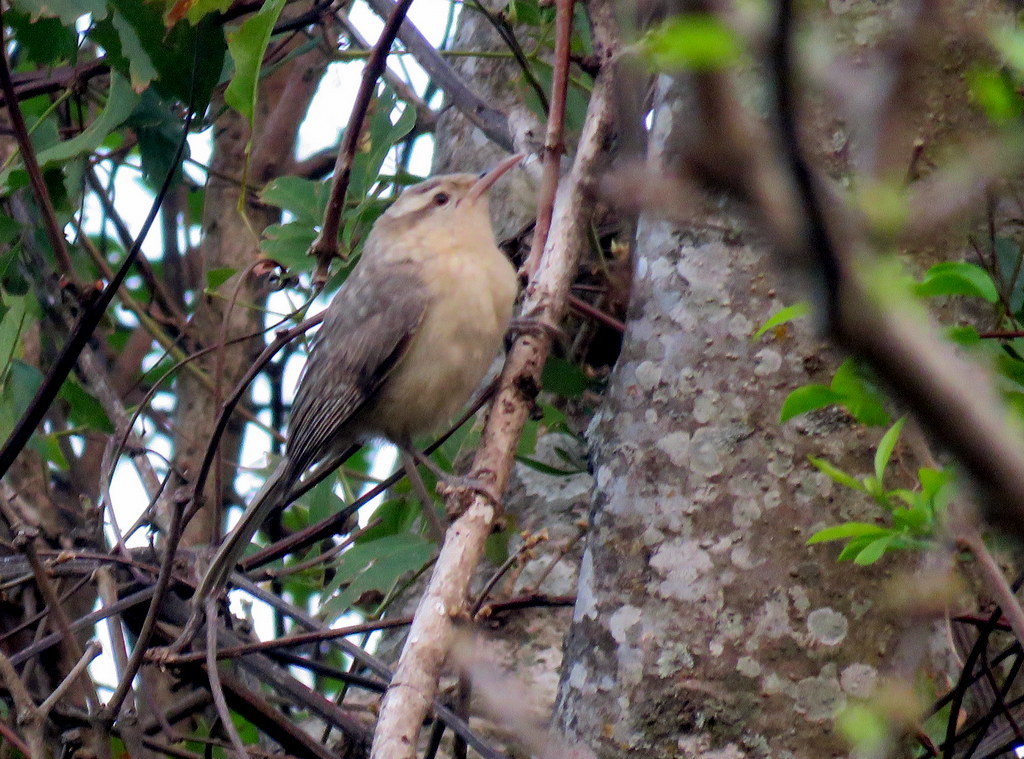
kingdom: Animalia
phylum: Chordata
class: Aves
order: Passeriformes
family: Troglodytidae
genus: Campylorhynchus
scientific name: Campylorhynchus turdinus
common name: Thrush-like wren
